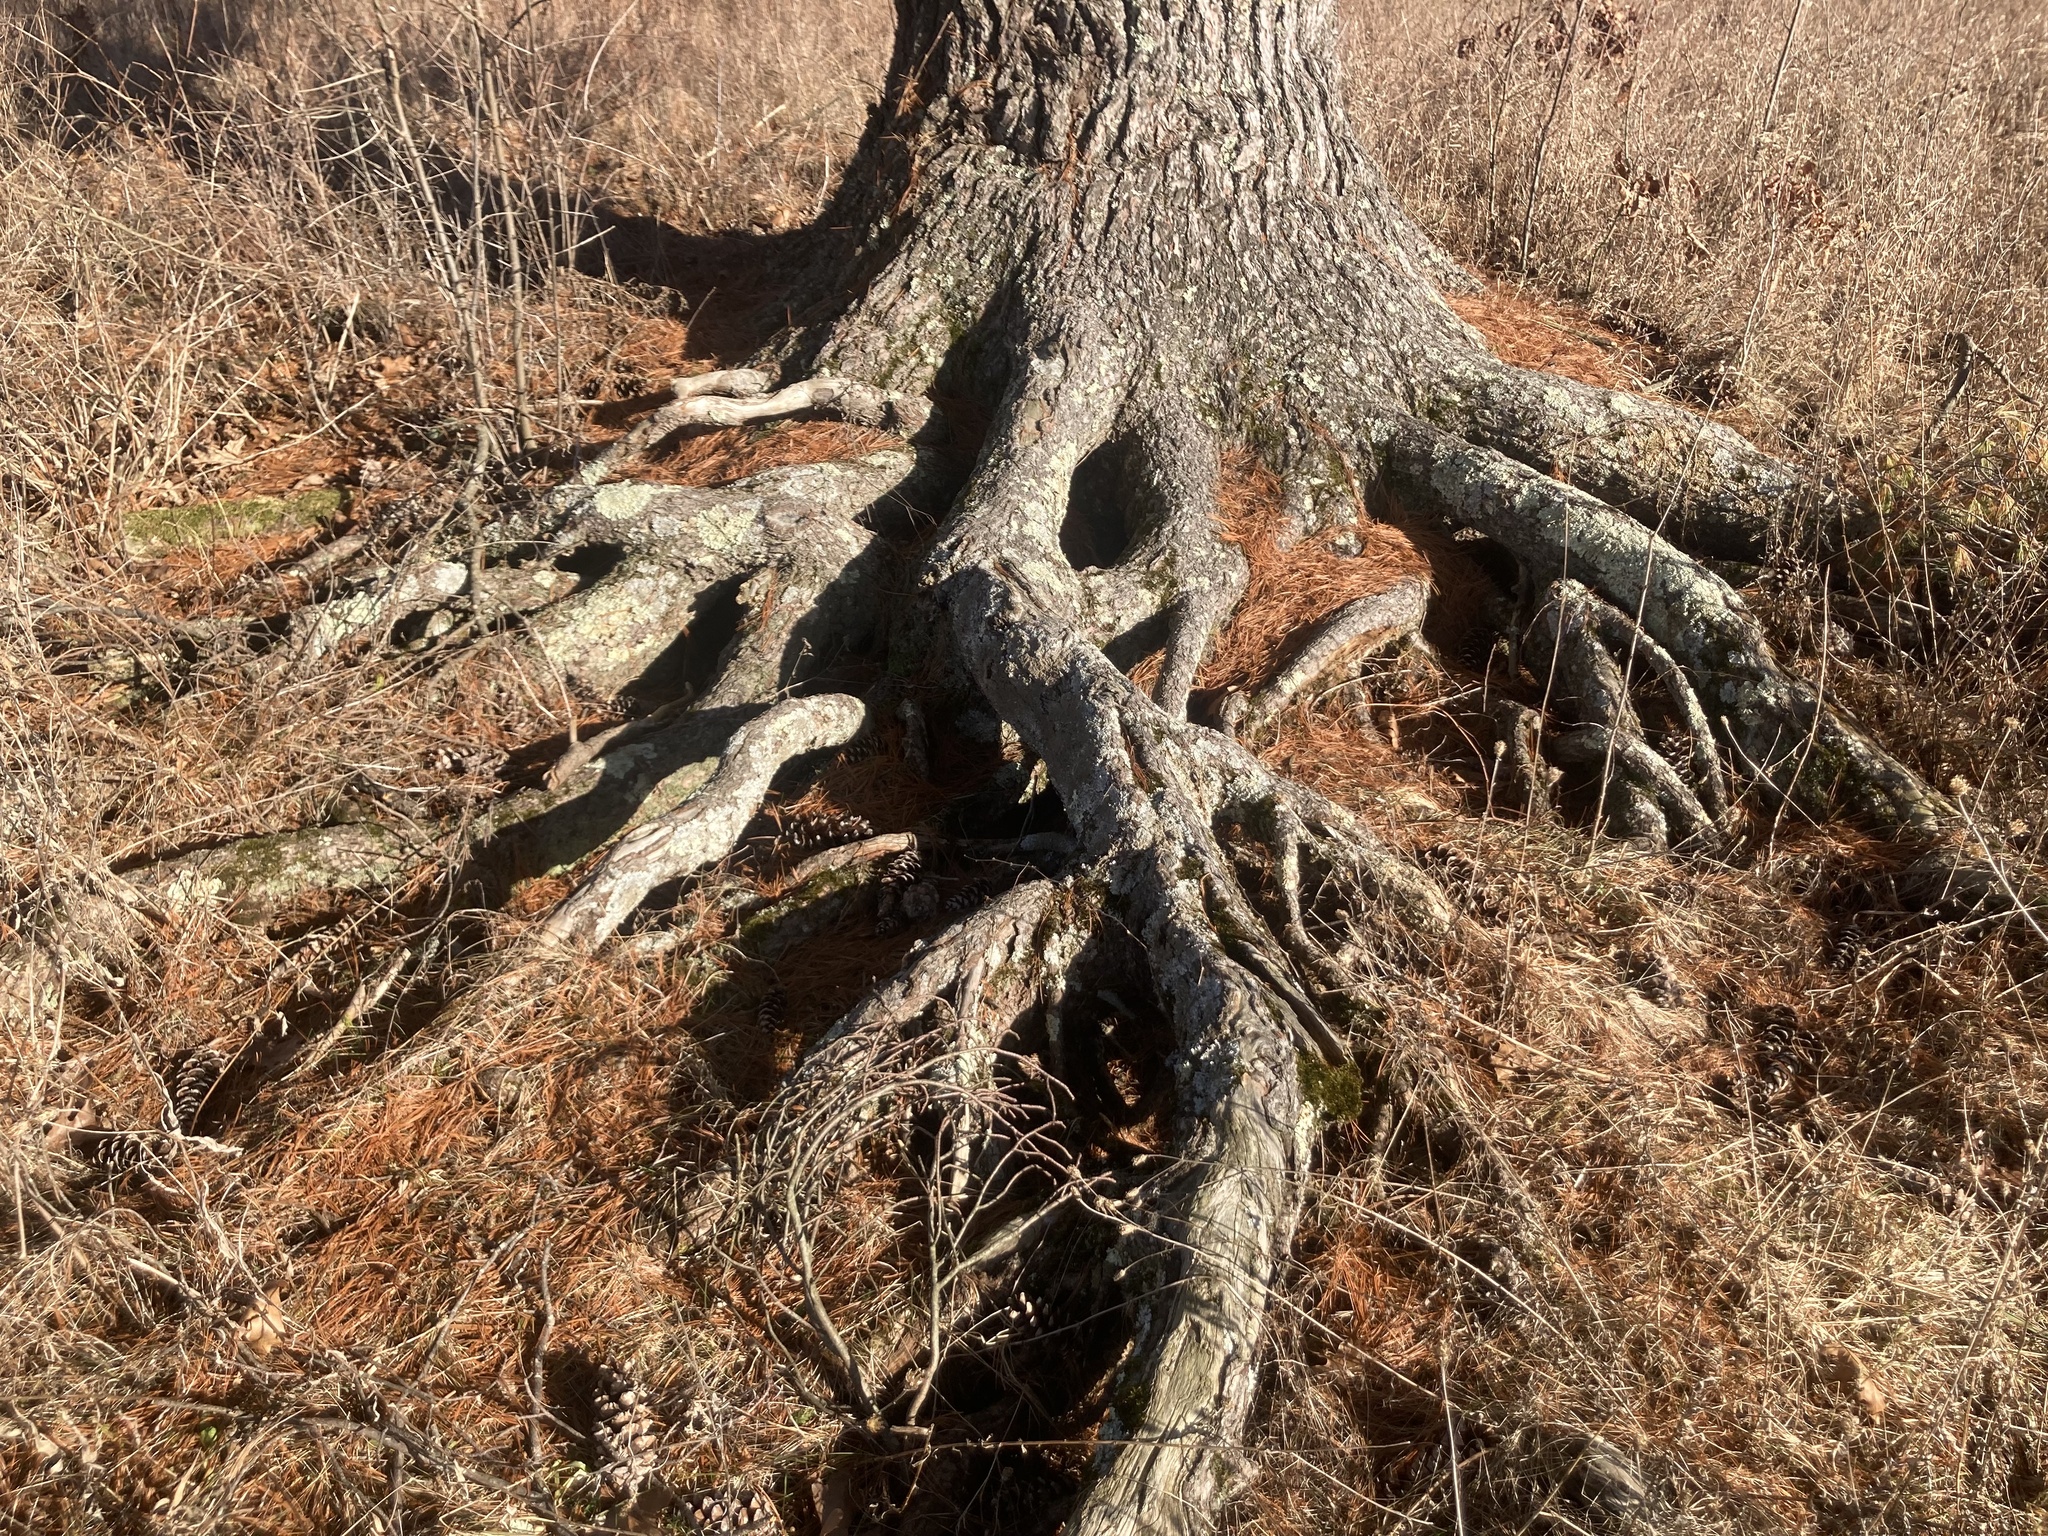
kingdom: Plantae
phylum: Tracheophyta
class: Pinopsida
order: Pinales
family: Pinaceae
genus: Pinus
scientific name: Pinus strobus
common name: Weymouth pine
